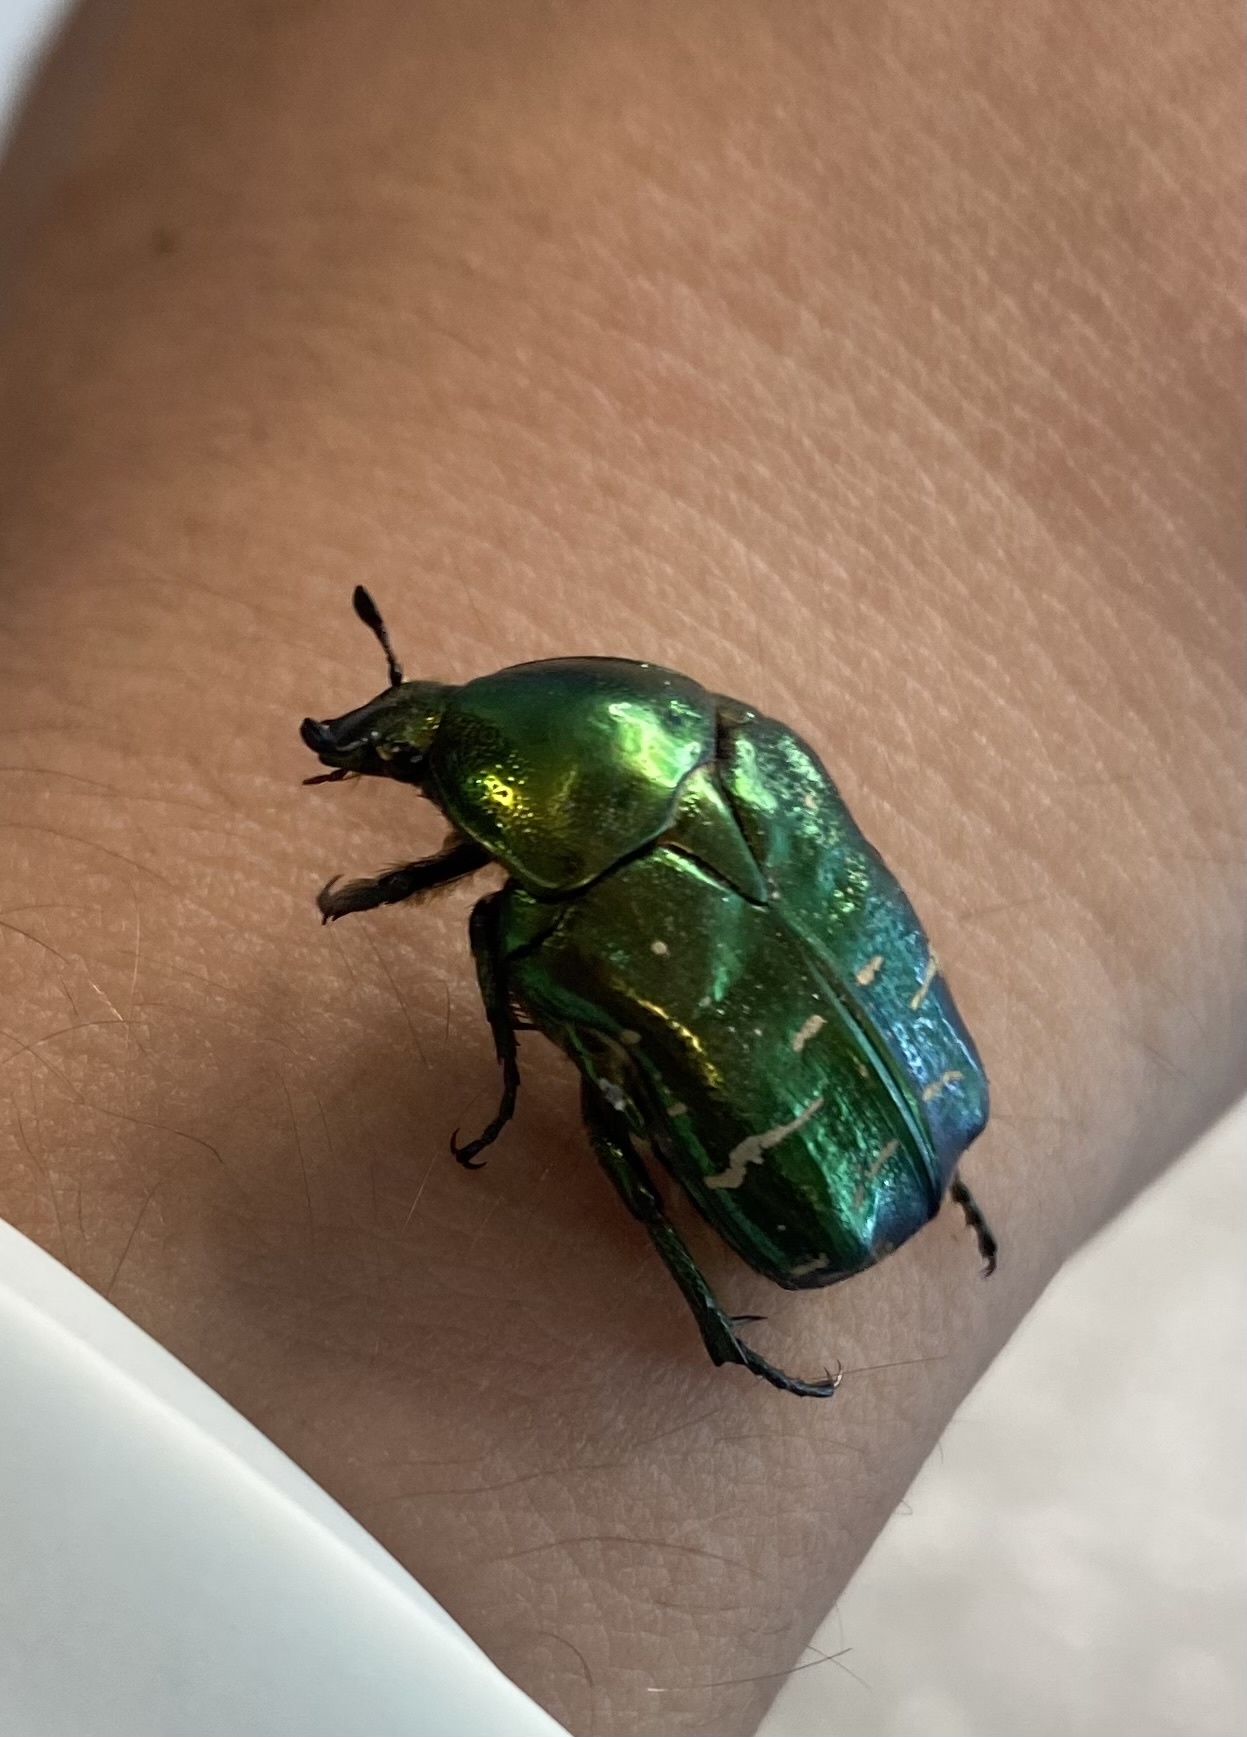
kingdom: Animalia
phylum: Arthropoda
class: Insecta
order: Coleoptera
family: Scarabaeidae
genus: Cetonia
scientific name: Cetonia aurata
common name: Rose chafer
